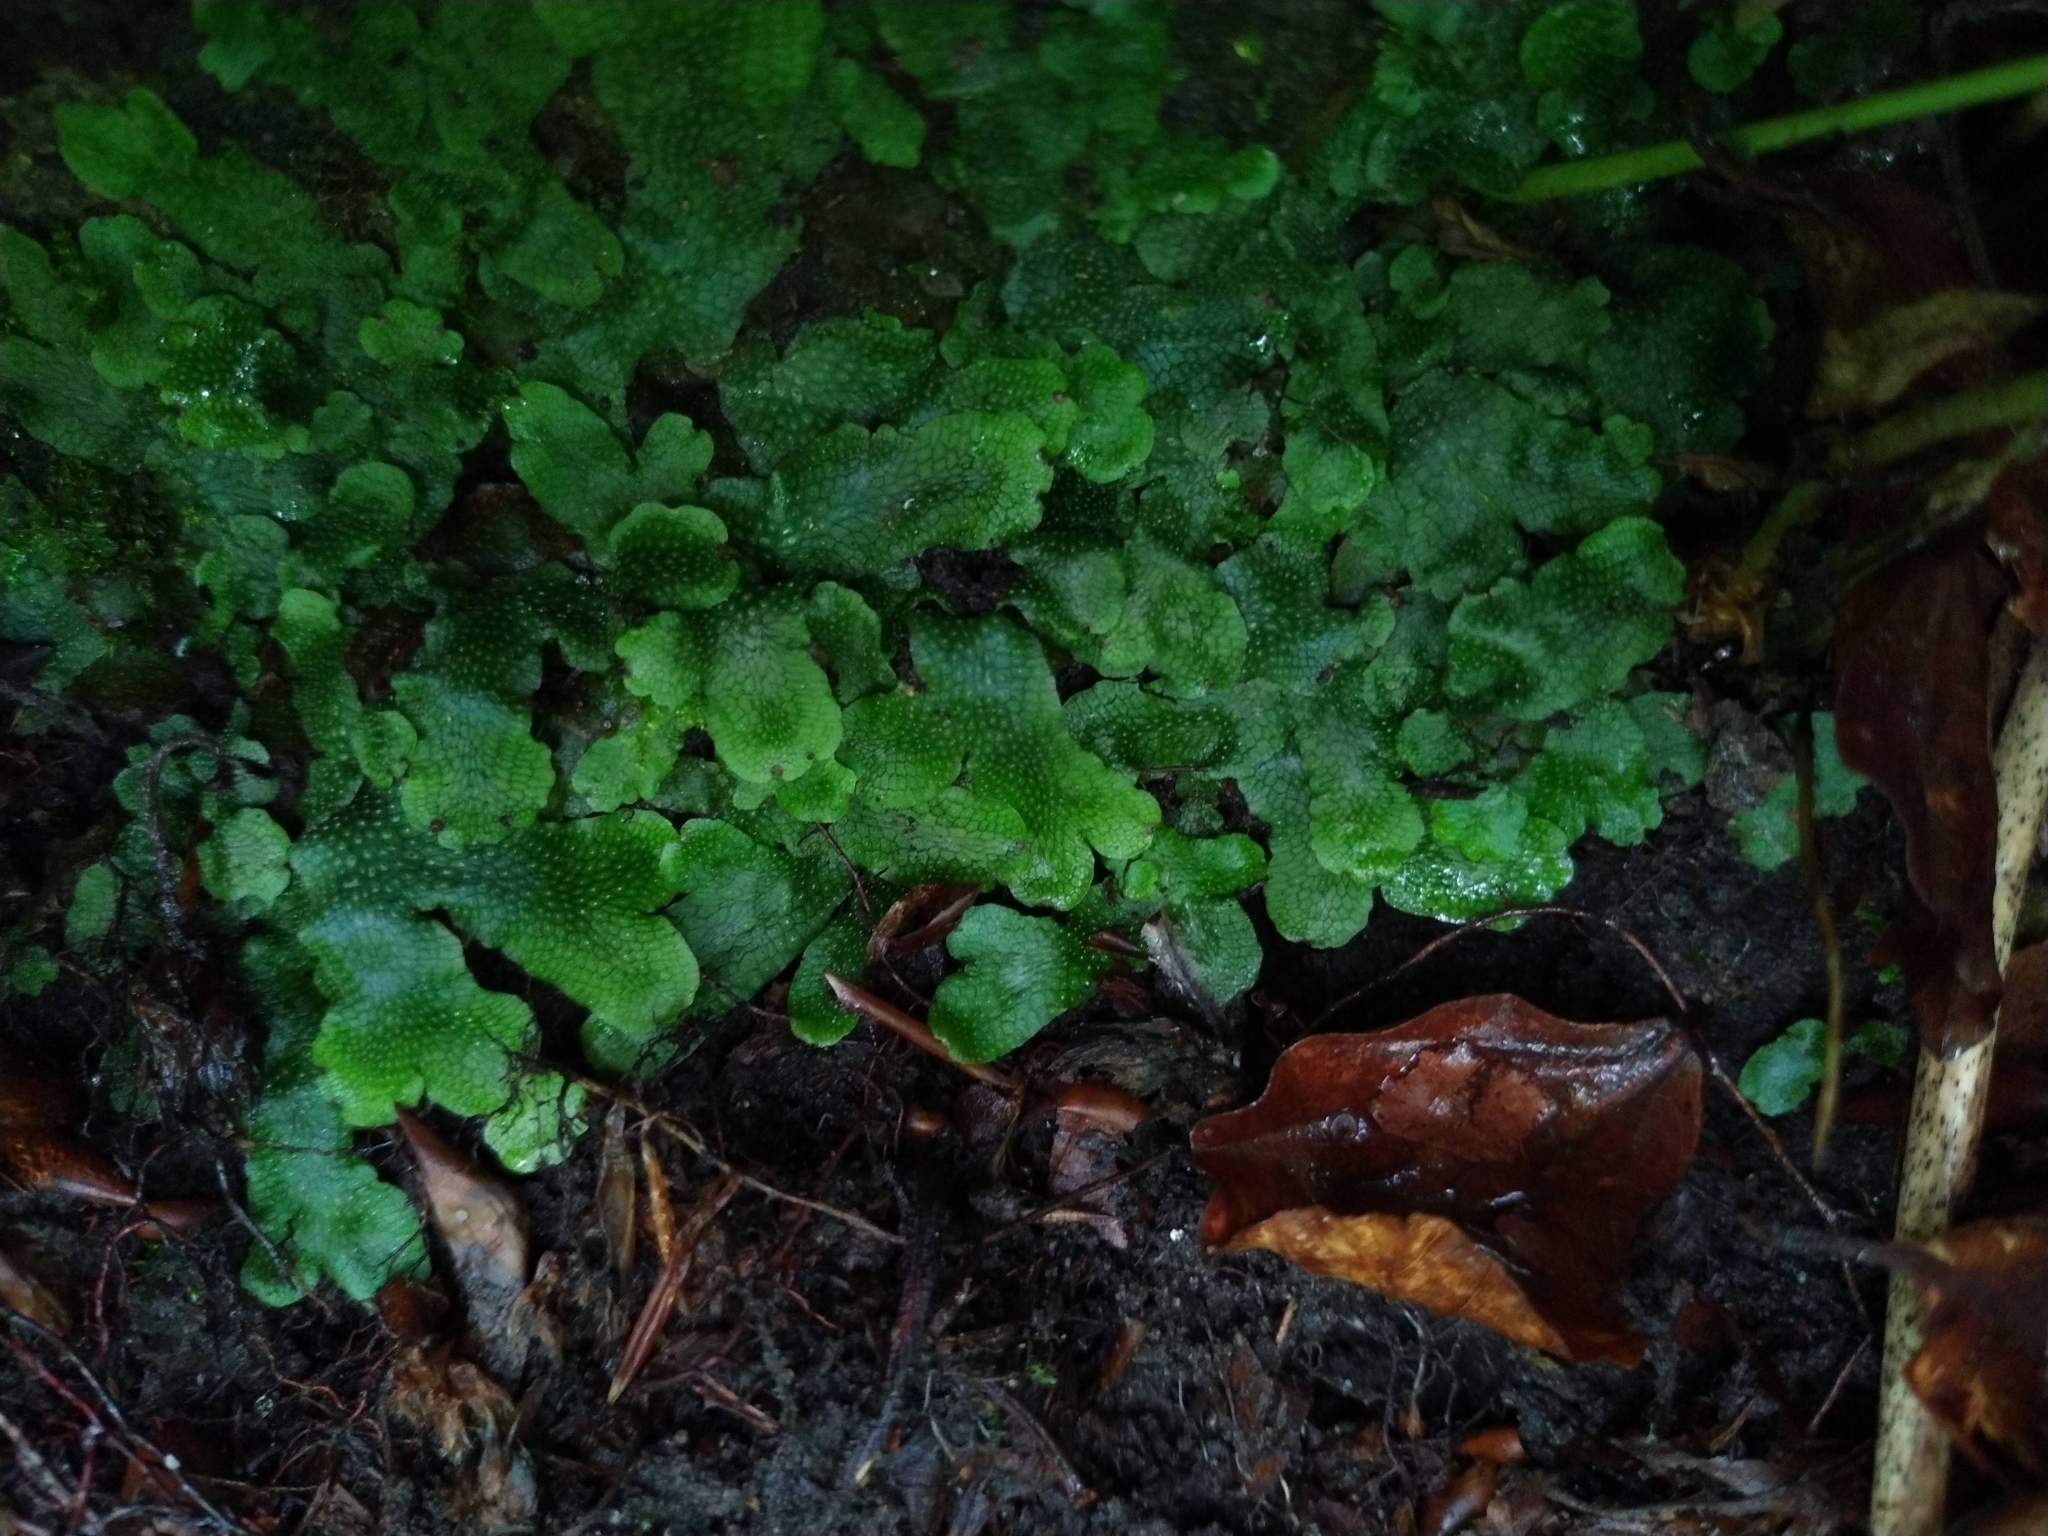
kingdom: Plantae
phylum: Marchantiophyta
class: Marchantiopsida
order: Marchantiales
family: Conocephalaceae
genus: Conocephalum
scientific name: Conocephalum salebrosum
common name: Cat-tongue liverwort
